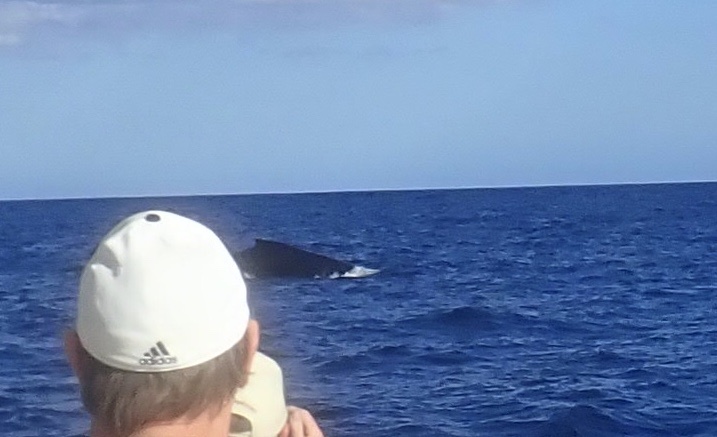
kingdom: Animalia
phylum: Chordata
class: Mammalia
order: Cetacea
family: Balaenopteridae
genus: Megaptera
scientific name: Megaptera novaeangliae
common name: Humpback whale
